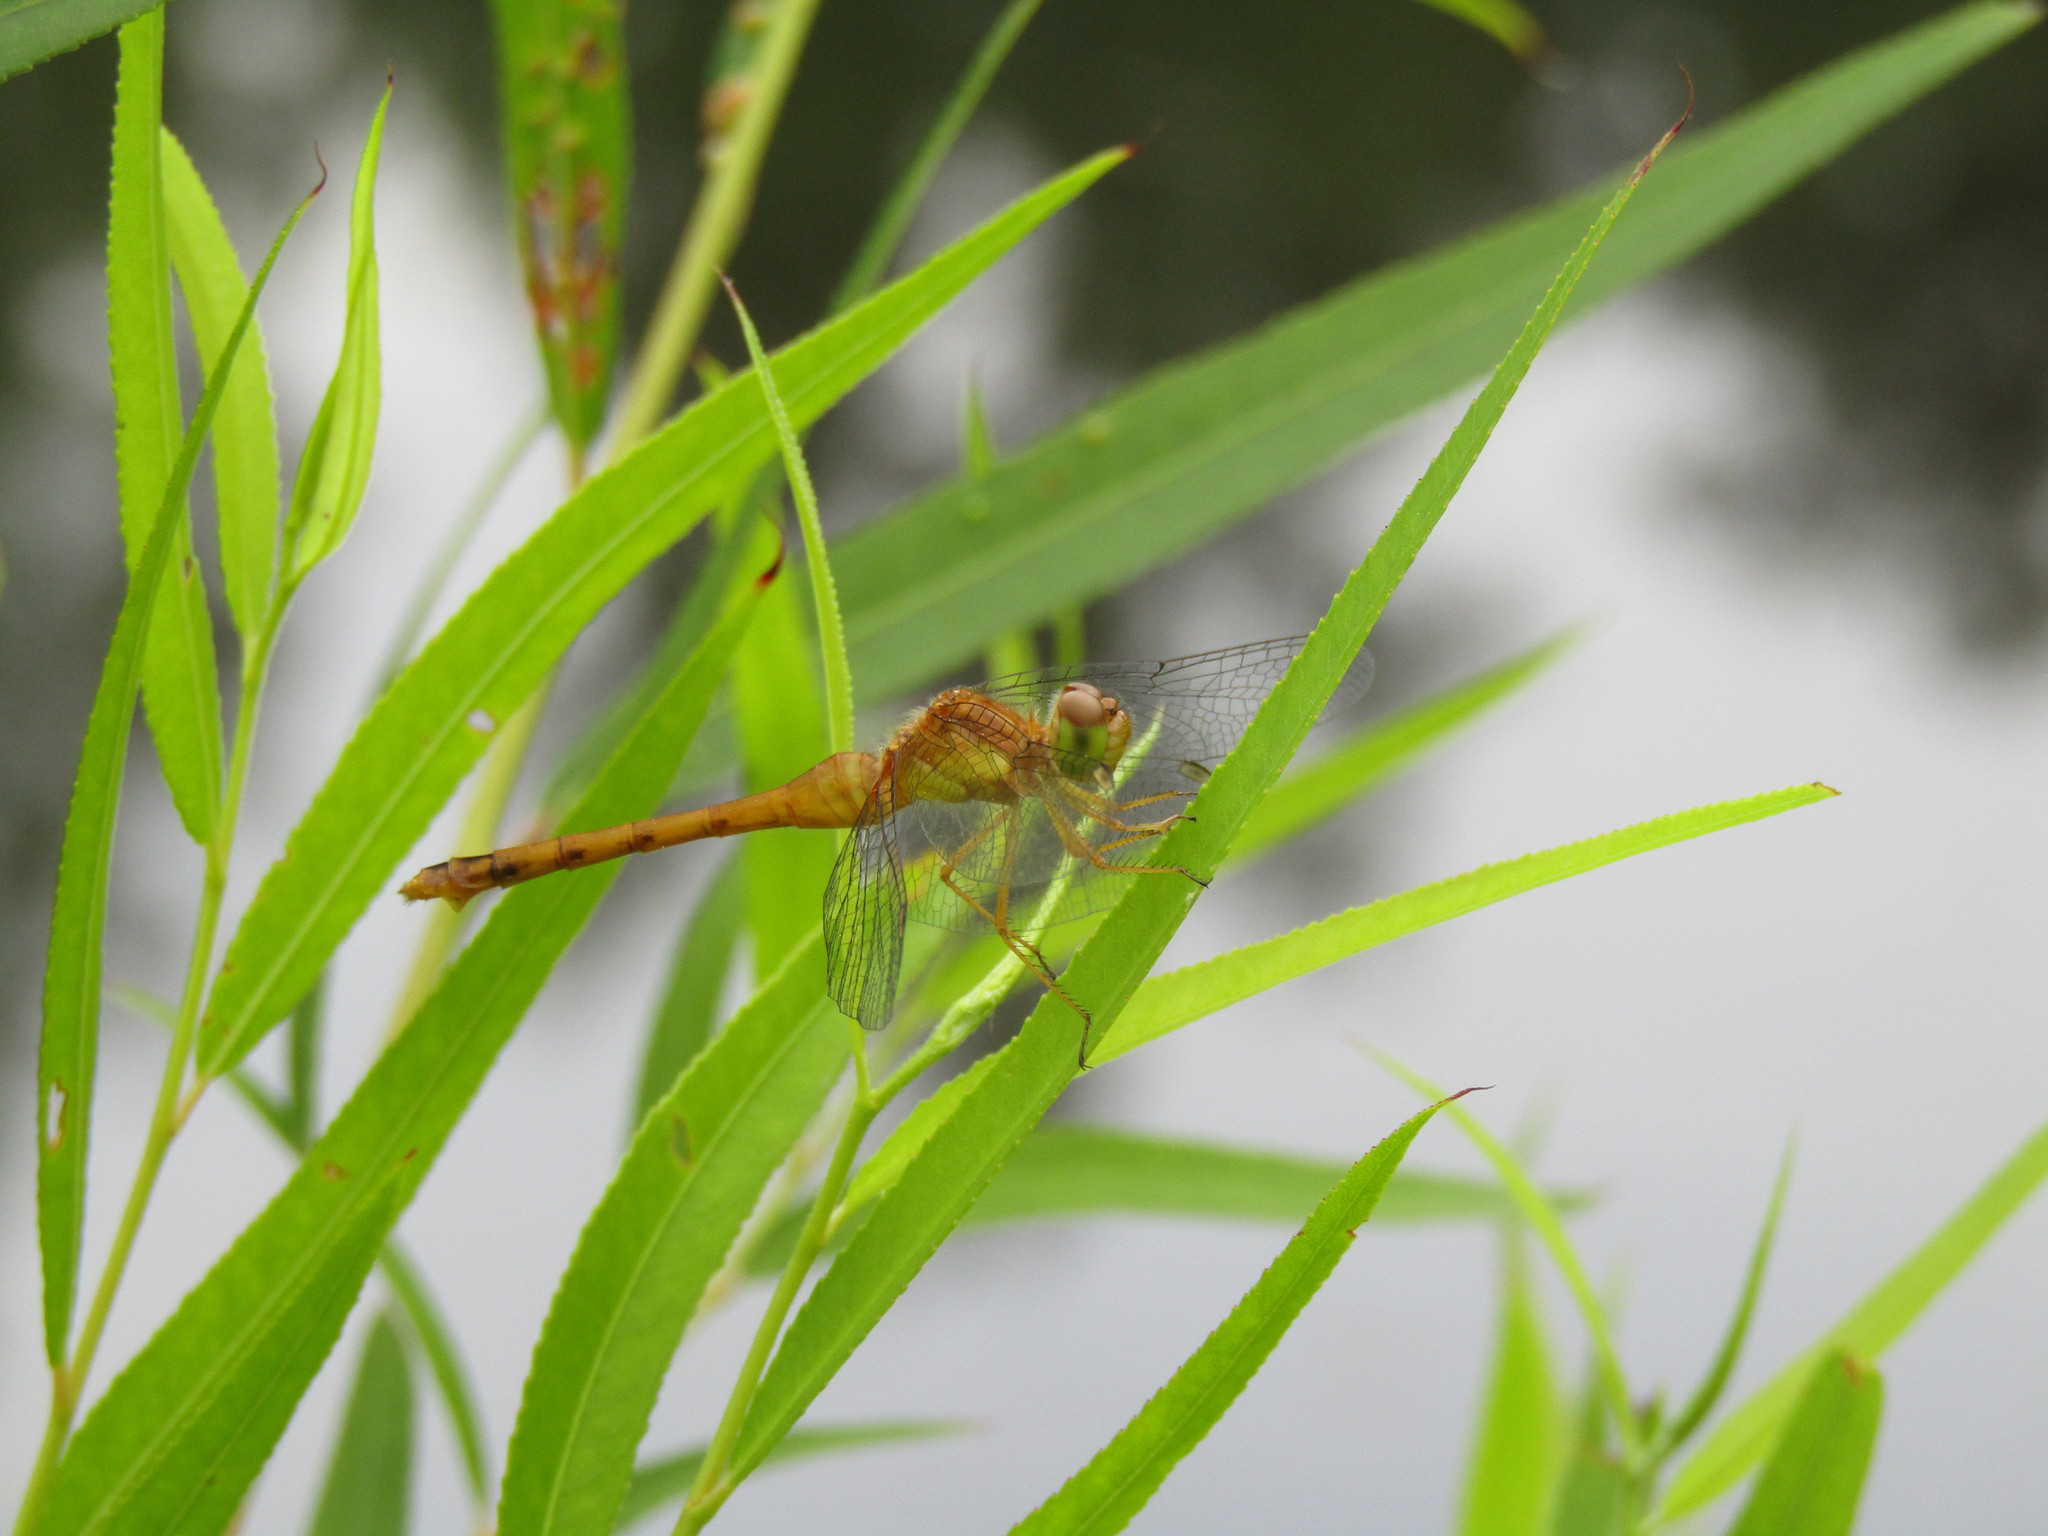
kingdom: Animalia
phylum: Arthropoda
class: Insecta
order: Odonata
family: Libellulidae
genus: Sympetrum
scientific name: Sympetrum vicinum
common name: Autumn meadowhawk
